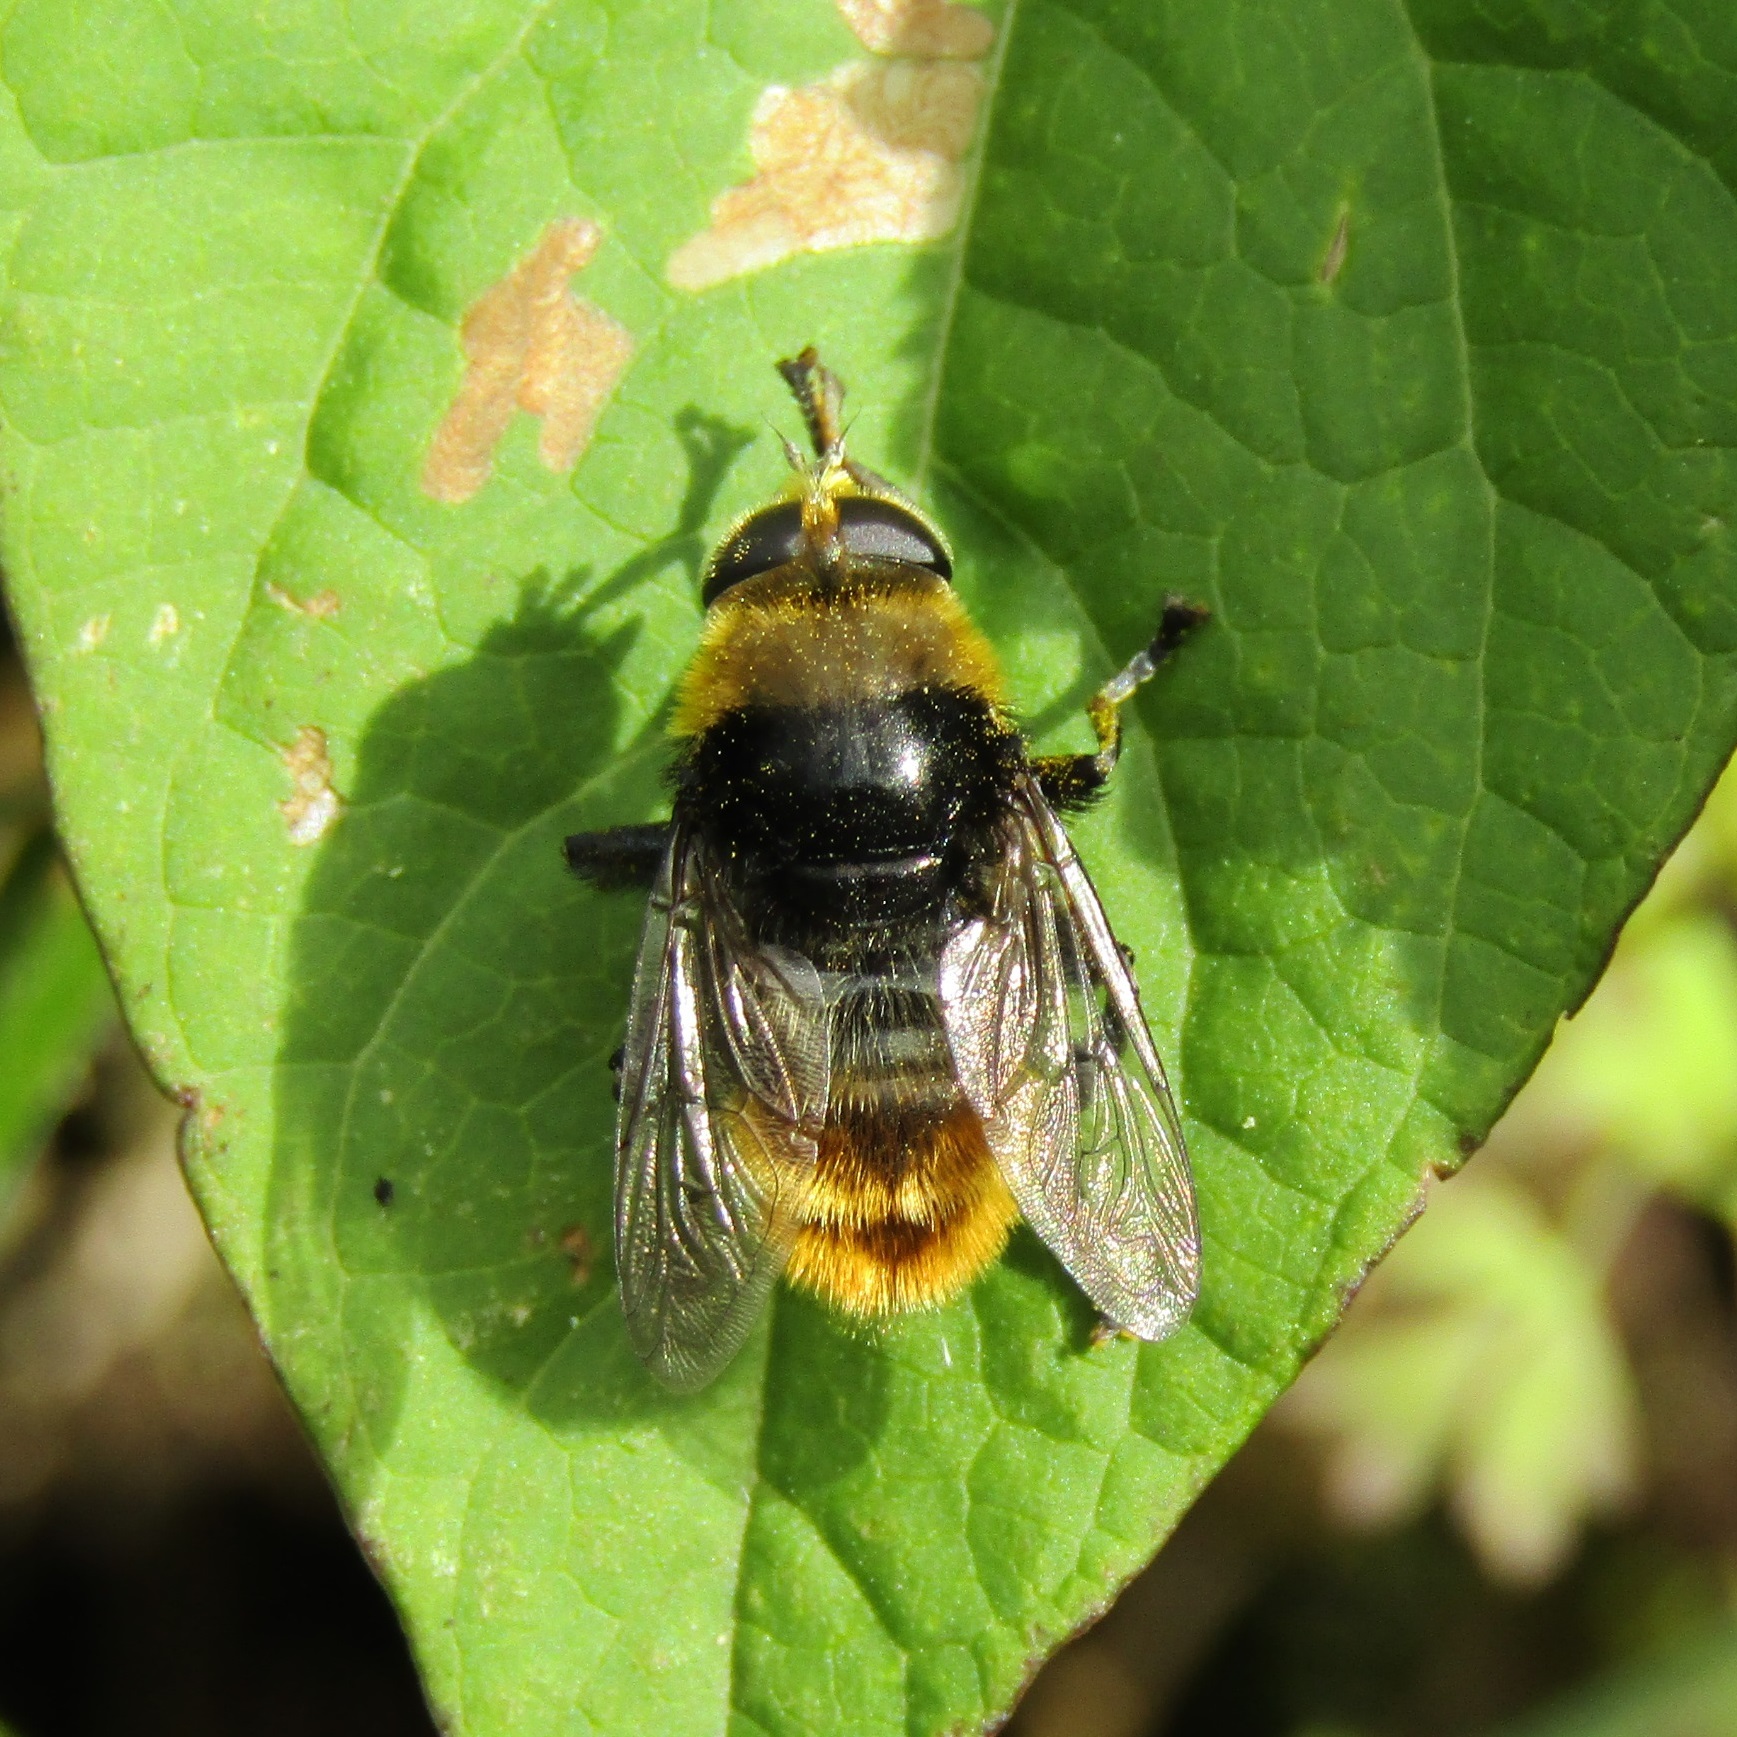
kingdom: Animalia
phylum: Arthropoda
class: Insecta
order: Diptera
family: Syrphidae
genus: Merodon
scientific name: Merodon equestris
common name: Greater bulb-fly
